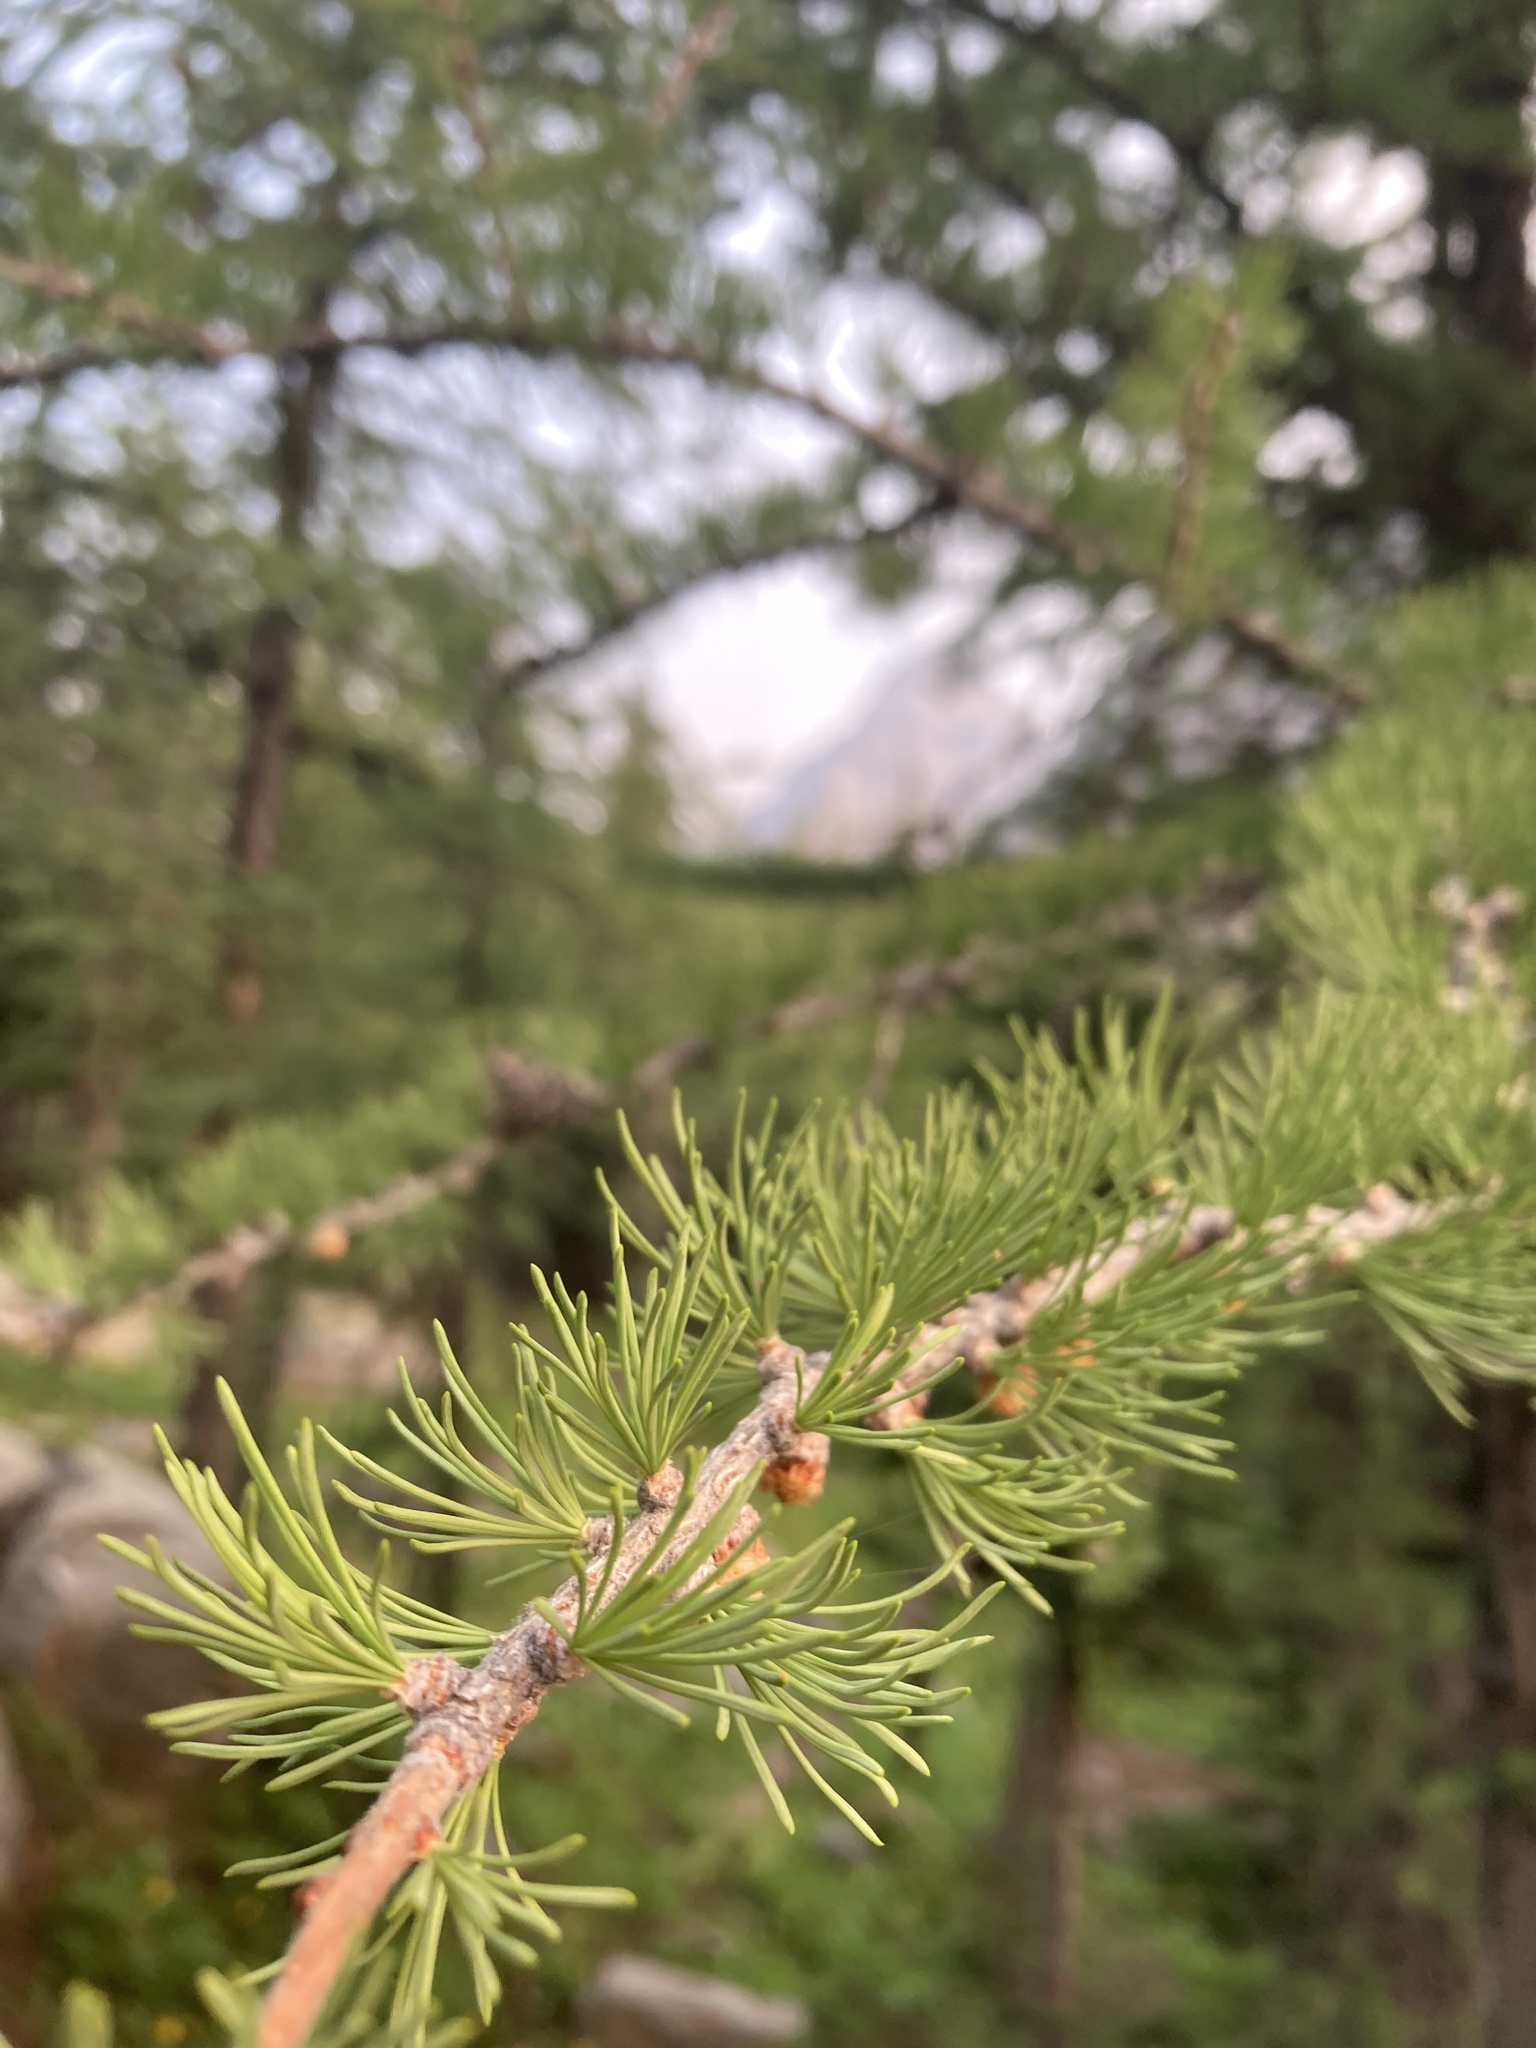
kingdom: Plantae
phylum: Tracheophyta
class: Pinopsida
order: Pinales
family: Pinaceae
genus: Larix
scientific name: Larix lyallii
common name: Alpine larch
